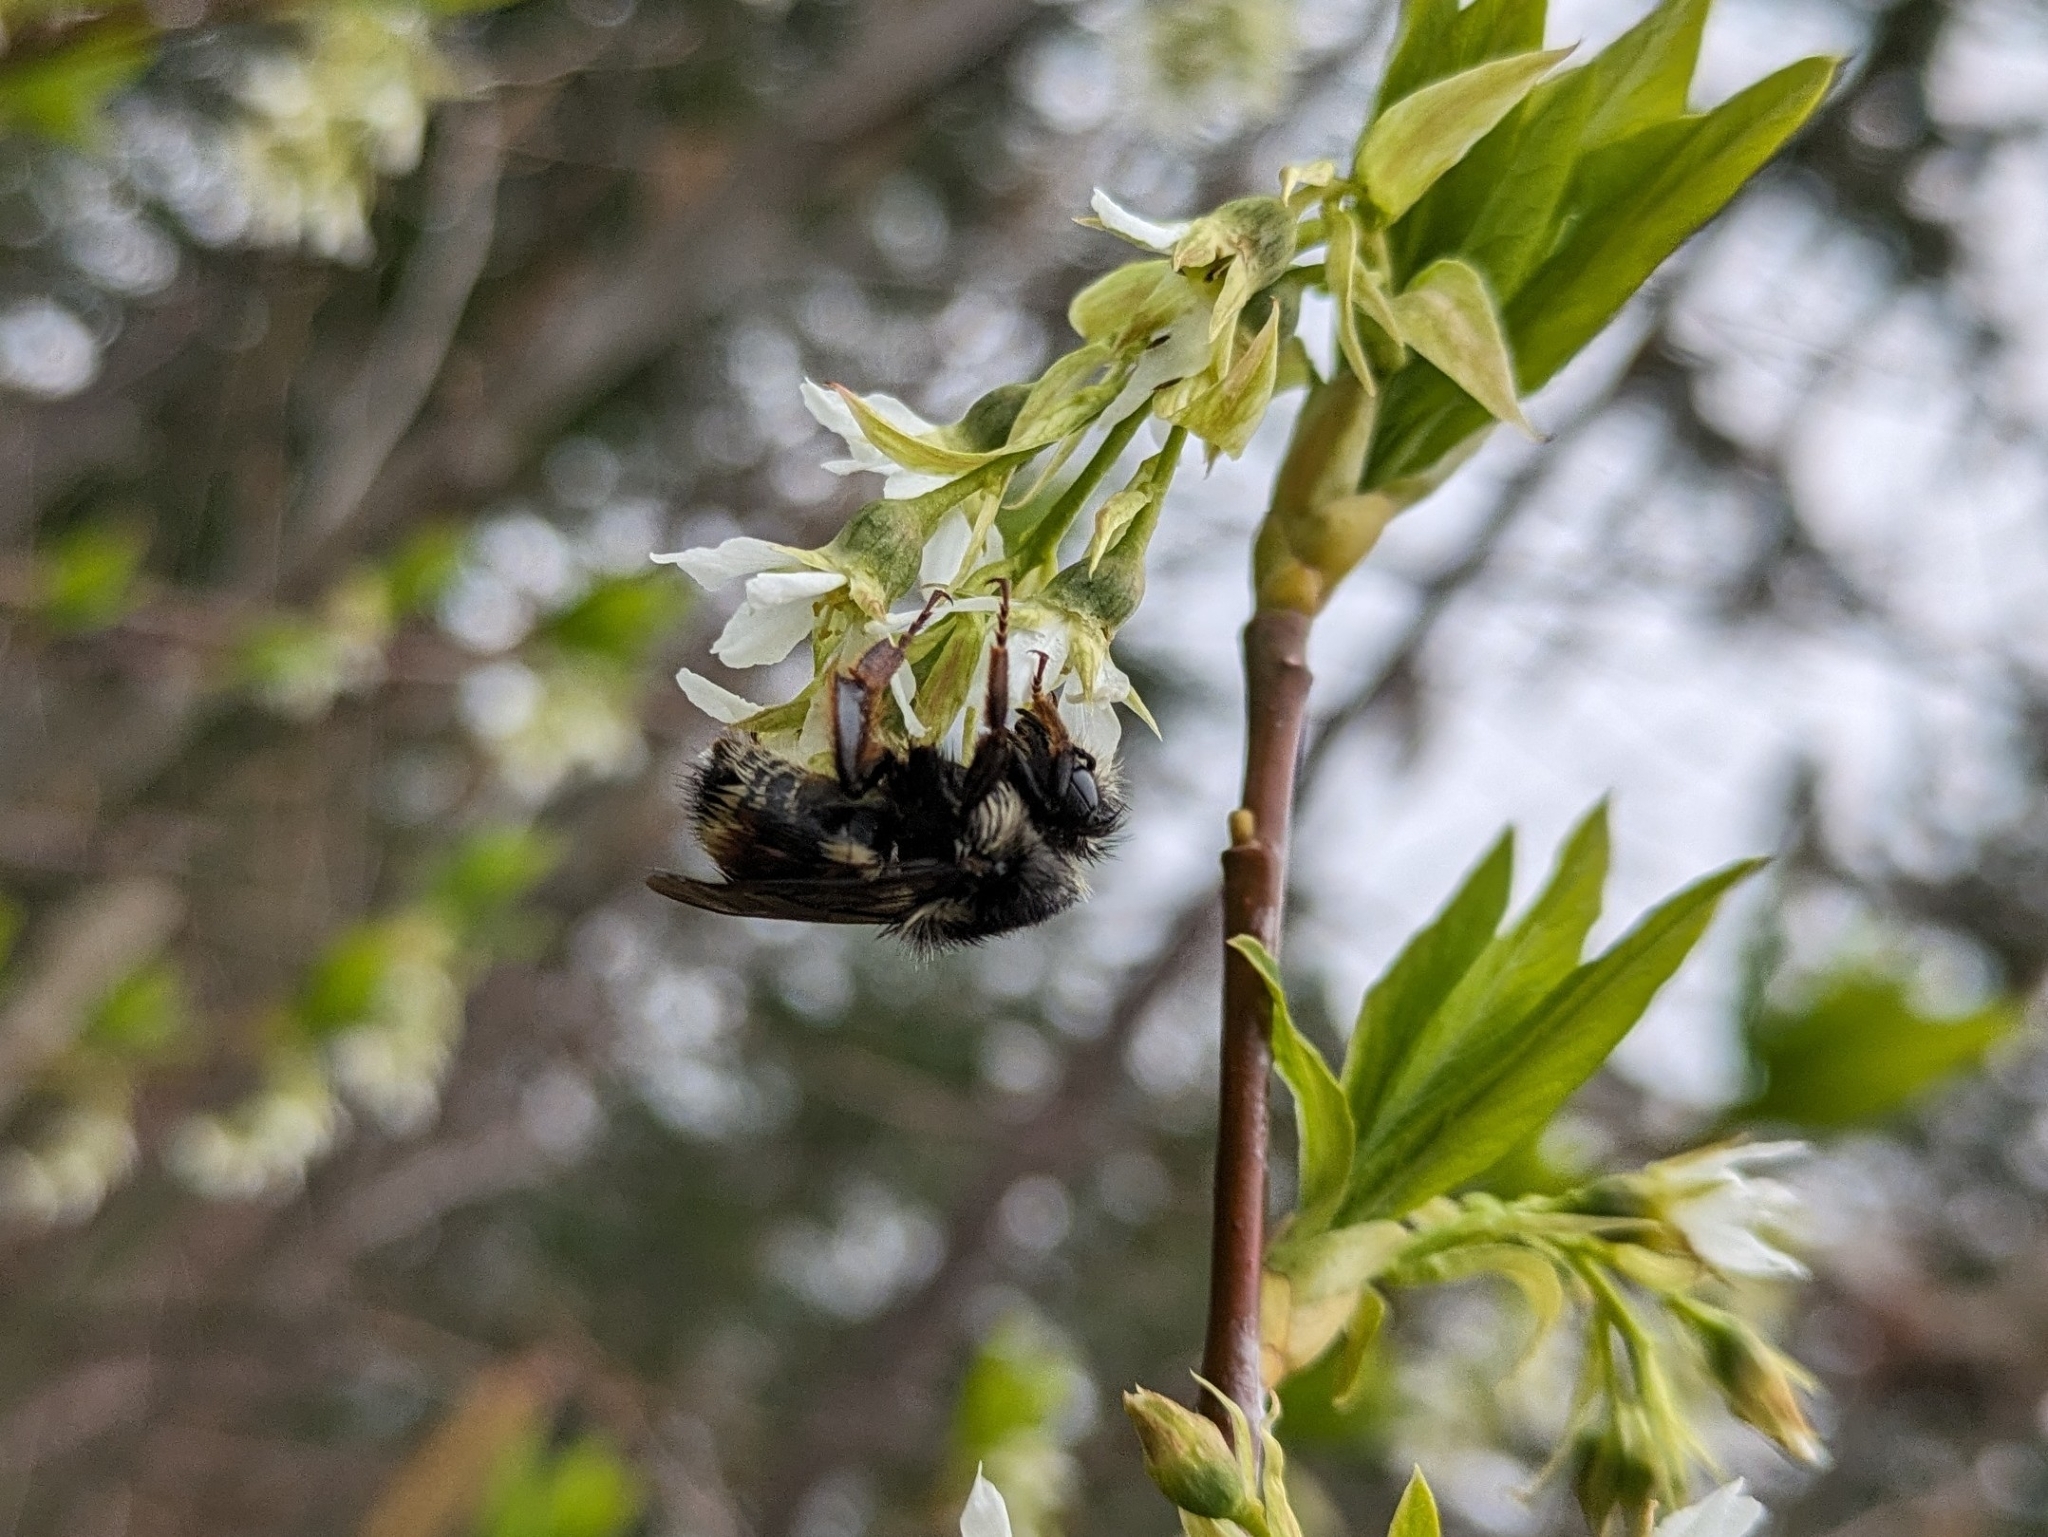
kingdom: Animalia
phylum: Arthropoda
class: Insecta
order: Hymenoptera
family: Apidae
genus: Bombus
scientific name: Bombus vancouverensis
